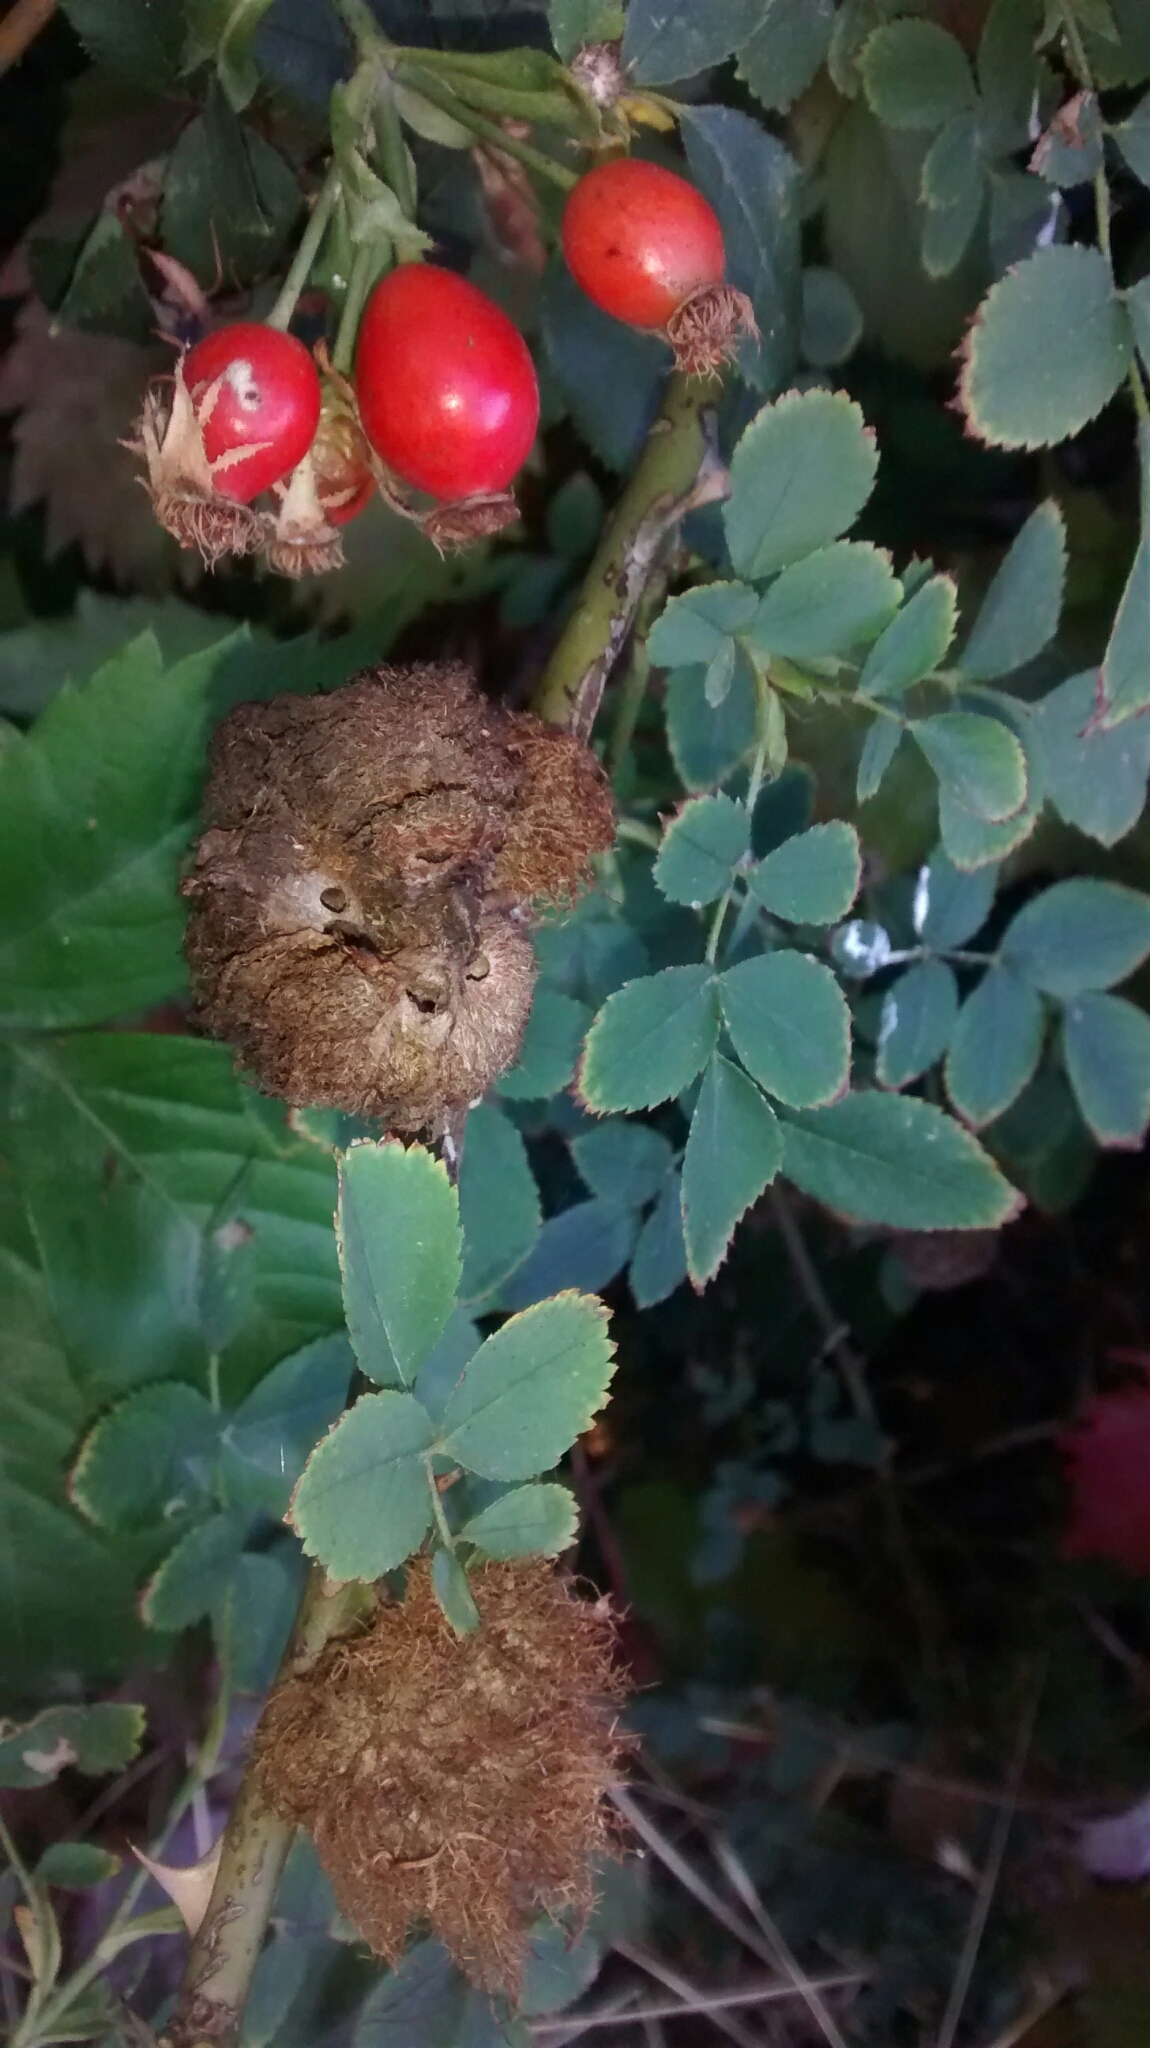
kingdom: Animalia
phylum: Arthropoda
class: Insecta
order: Hymenoptera
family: Cynipidae
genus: Diplolepis
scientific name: Diplolepis rosae
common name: Bedeguar gall
